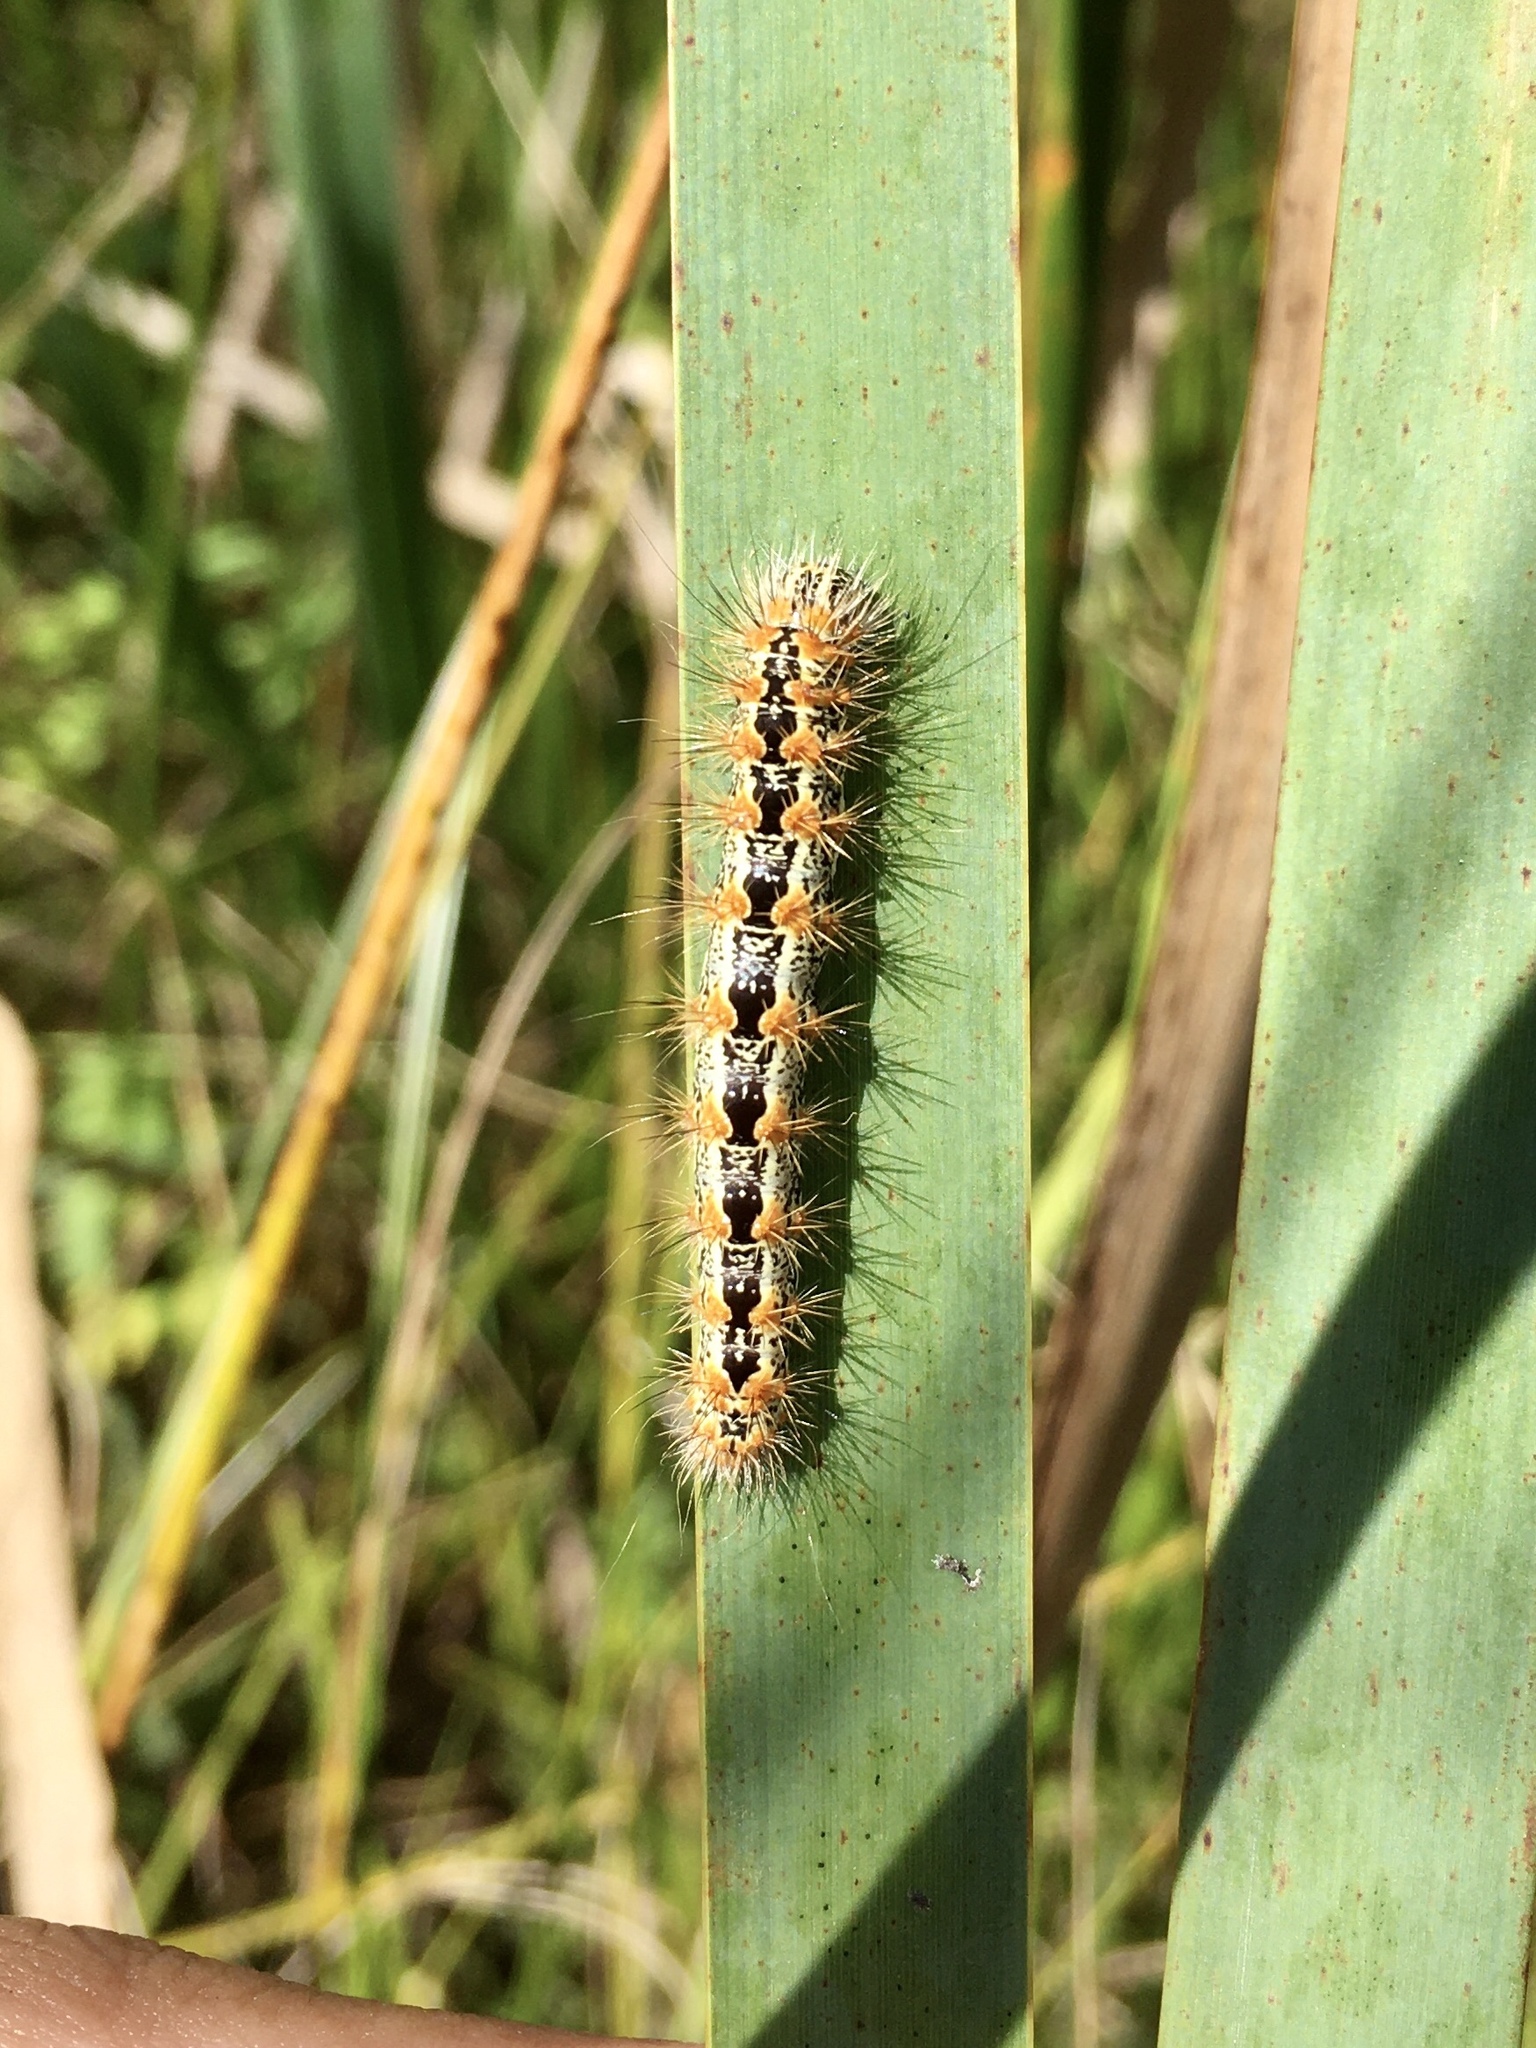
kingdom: Animalia
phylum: Arthropoda
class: Insecta
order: Lepidoptera
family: Noctuidae
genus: Acronicta
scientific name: Acronicta insularis
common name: Henry's marsh moth
